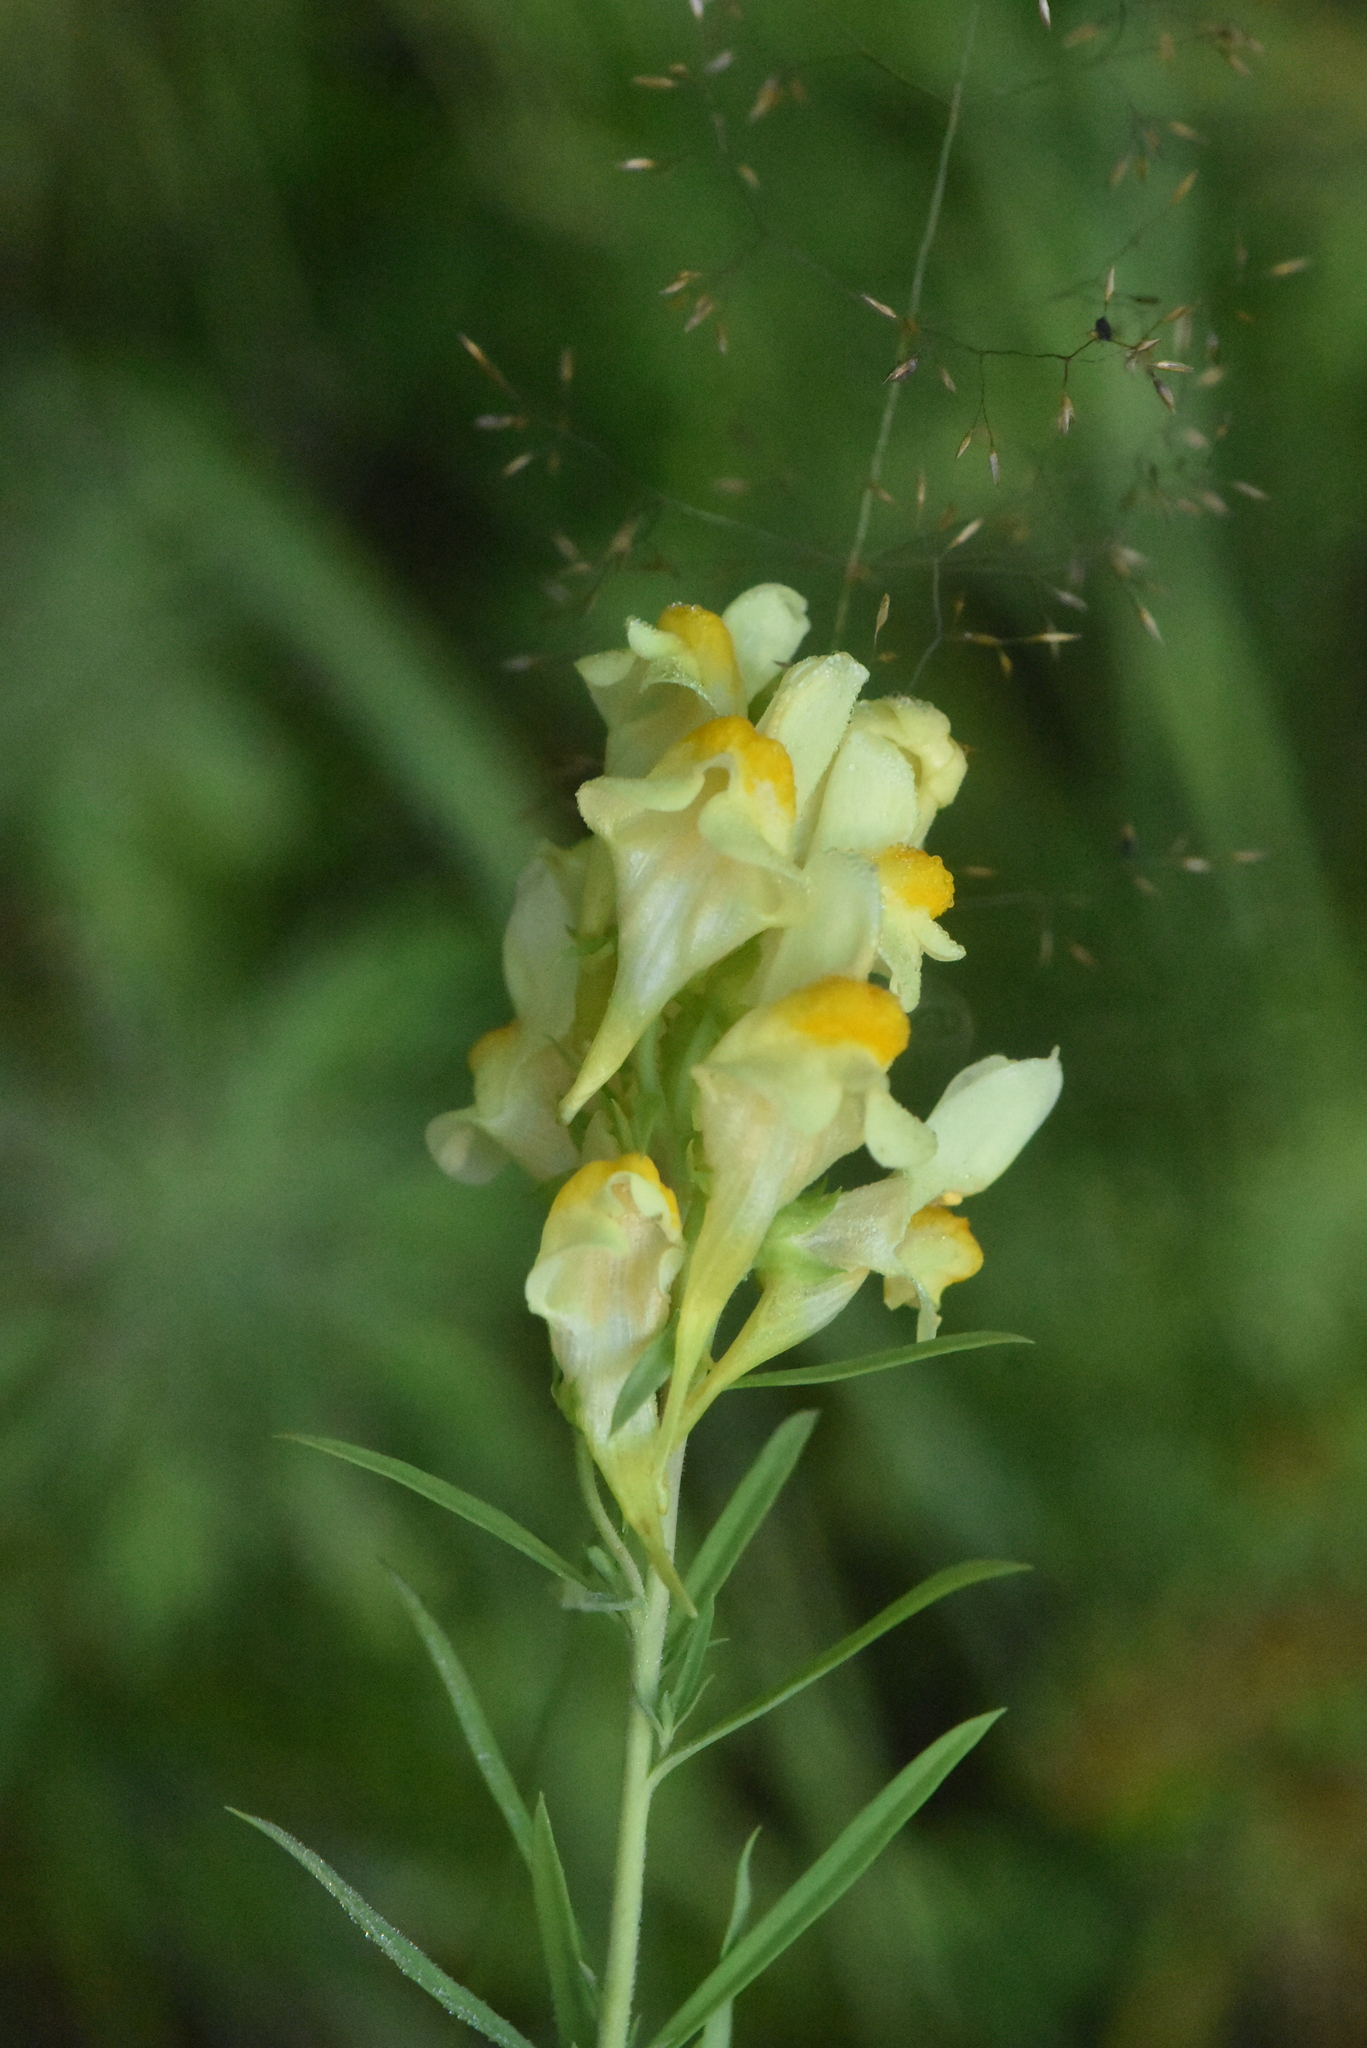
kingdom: Plantae
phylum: Tracheophyta
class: Magnoliopsida
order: Lamiales
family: Plantaginaceae
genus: Linaria
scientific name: Linaria vulgaris
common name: Butter and eggs
